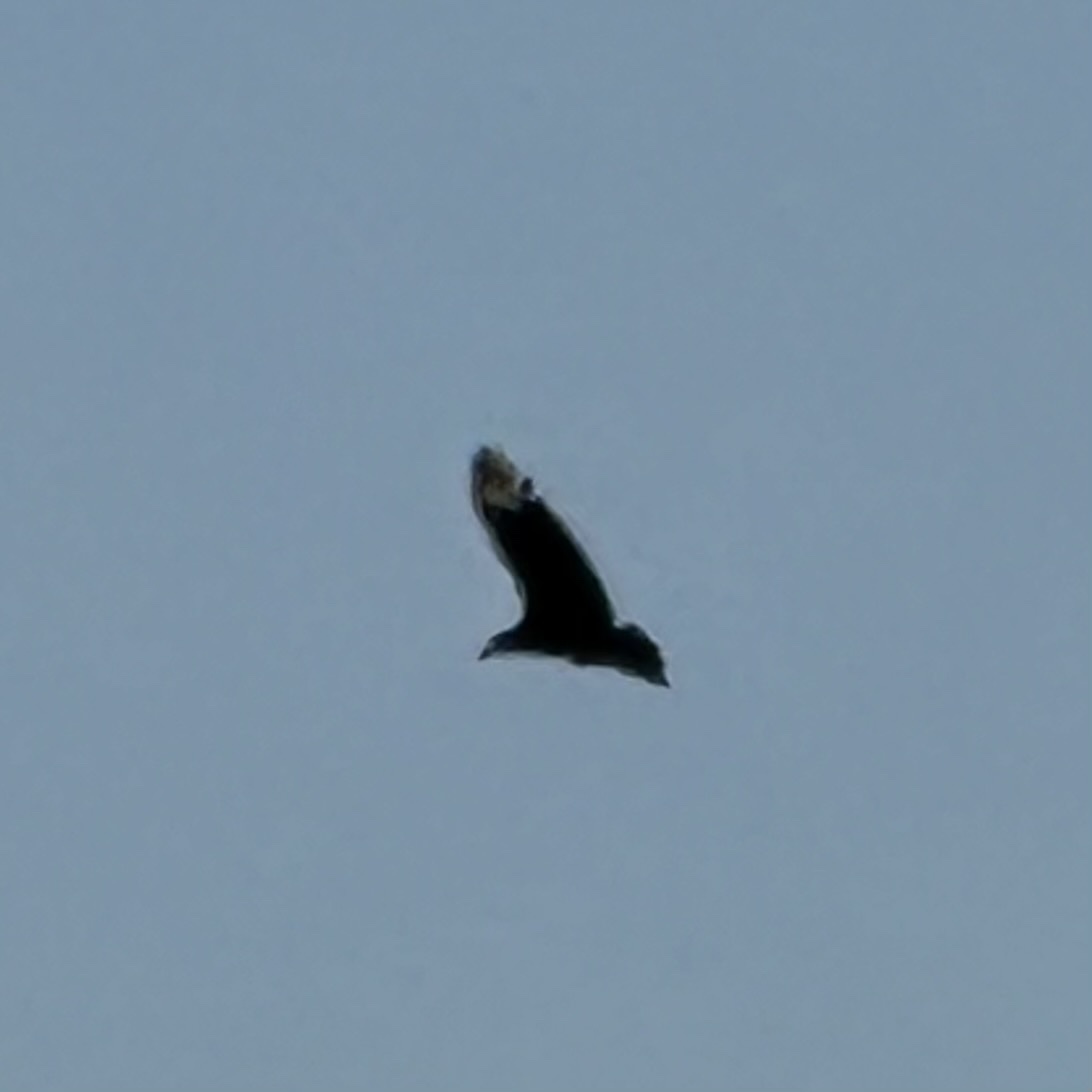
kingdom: Animalia
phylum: Chordata
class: Aves
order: Accipitriformes
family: Cathartidae
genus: Coragyps
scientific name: Coragyps atratus
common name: Black vulture
